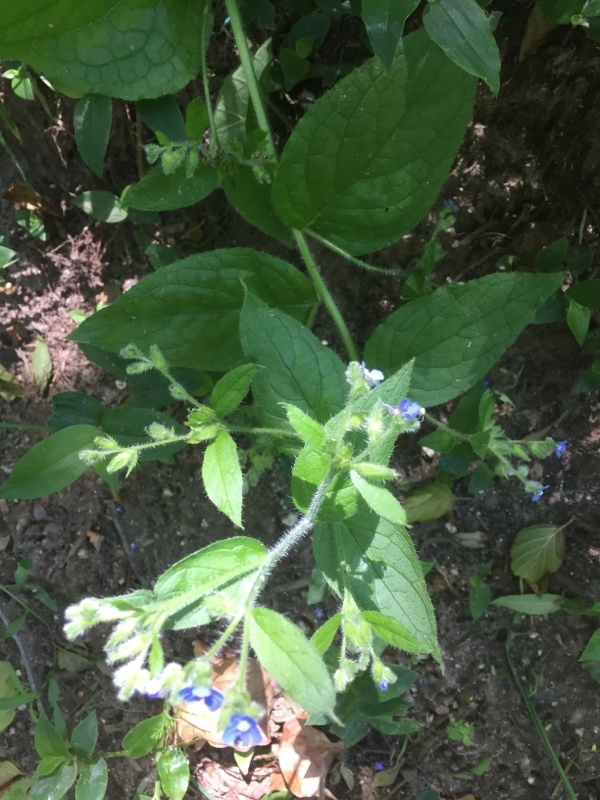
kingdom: Plantae
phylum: Tracheophyta
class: Magnoliopsida
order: Boraginales
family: Boraginaceae
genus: Pentaglottis
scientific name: Pentaglottis sempervirens
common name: Green alkanet
